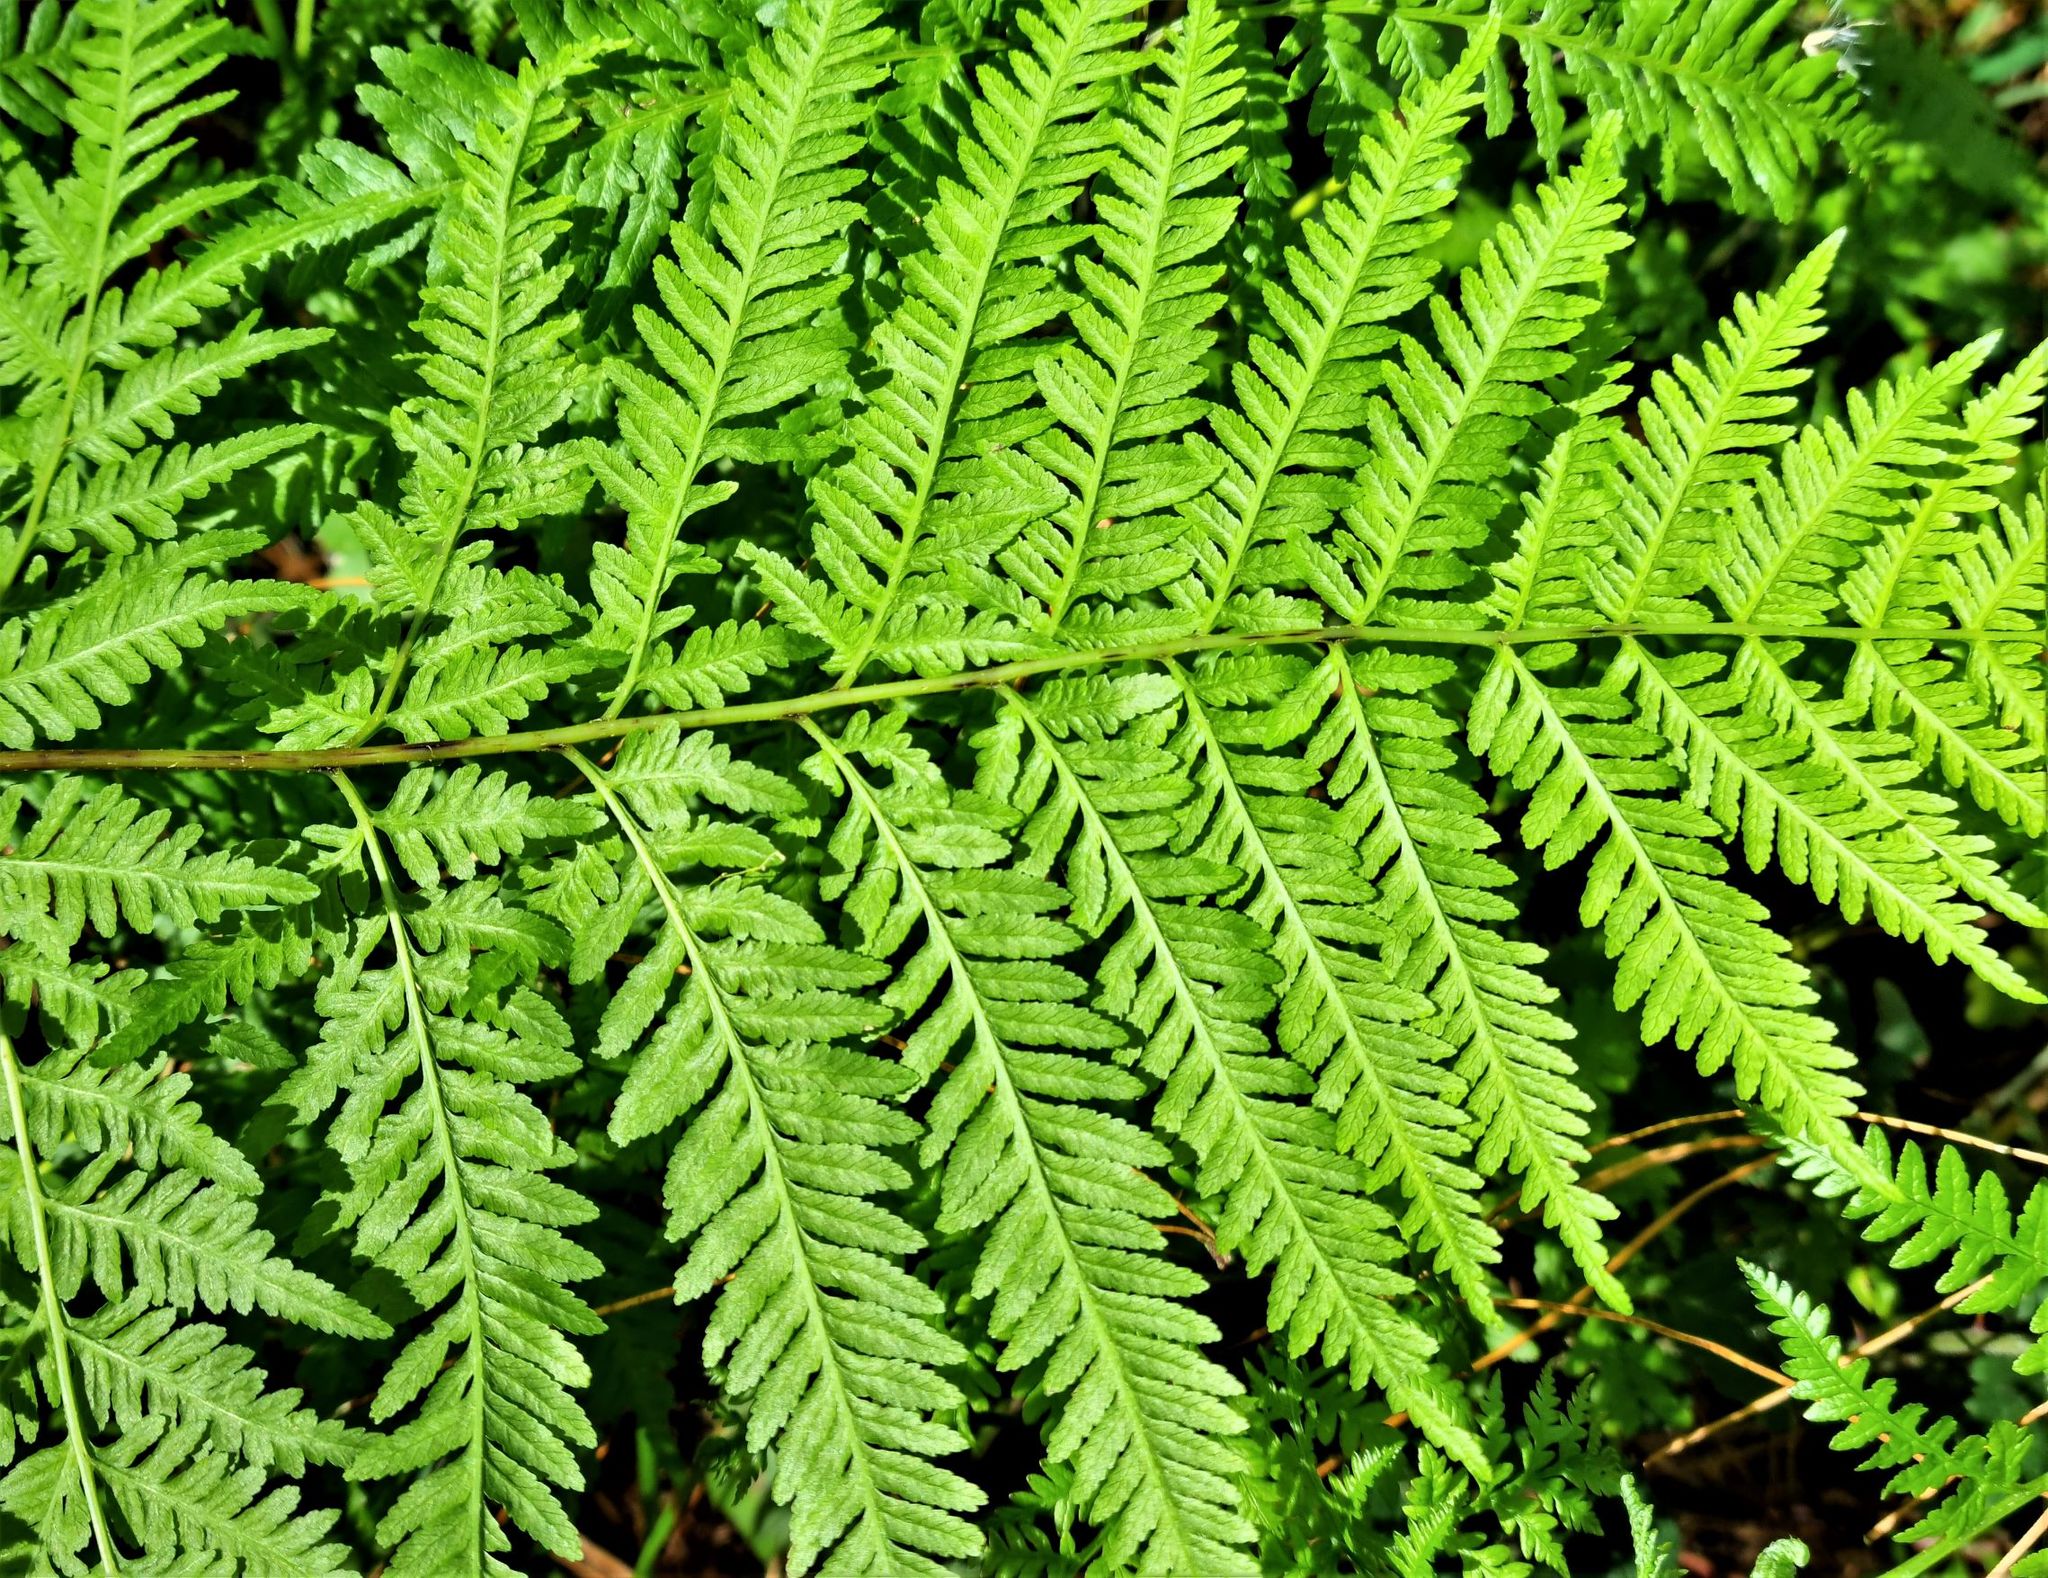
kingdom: Plantae
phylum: Tracheophyta
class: Polypodiopsida
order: Polypodiales
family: Pteridaceae
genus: Pteris
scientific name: Pteris tremula
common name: Australian brake
